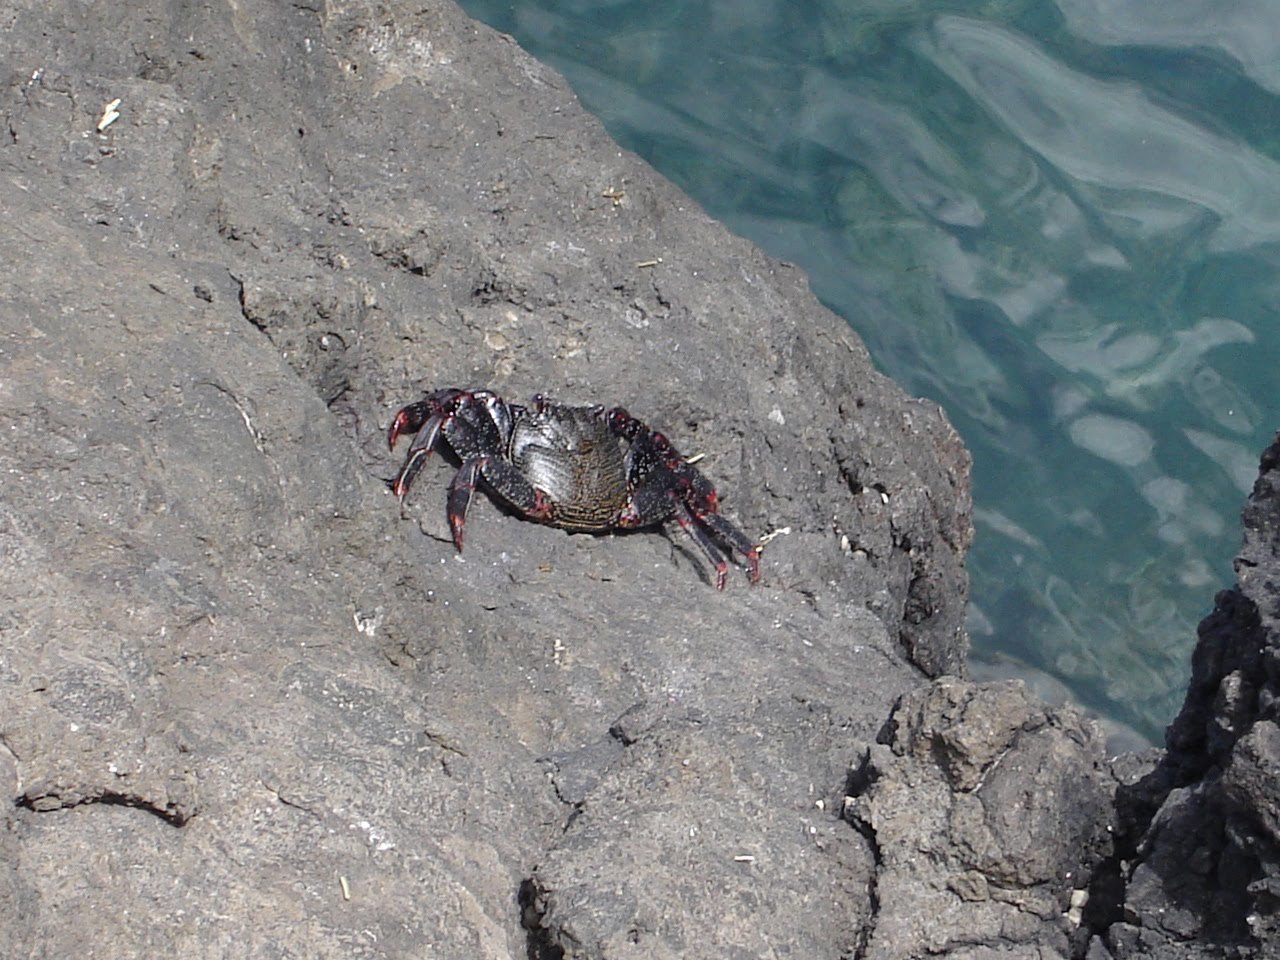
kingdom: Animalia
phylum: Arthropoda
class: Malacostraca
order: Decapoda
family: Grapsidae
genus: Grapsus
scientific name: Grapsus adscensionis
